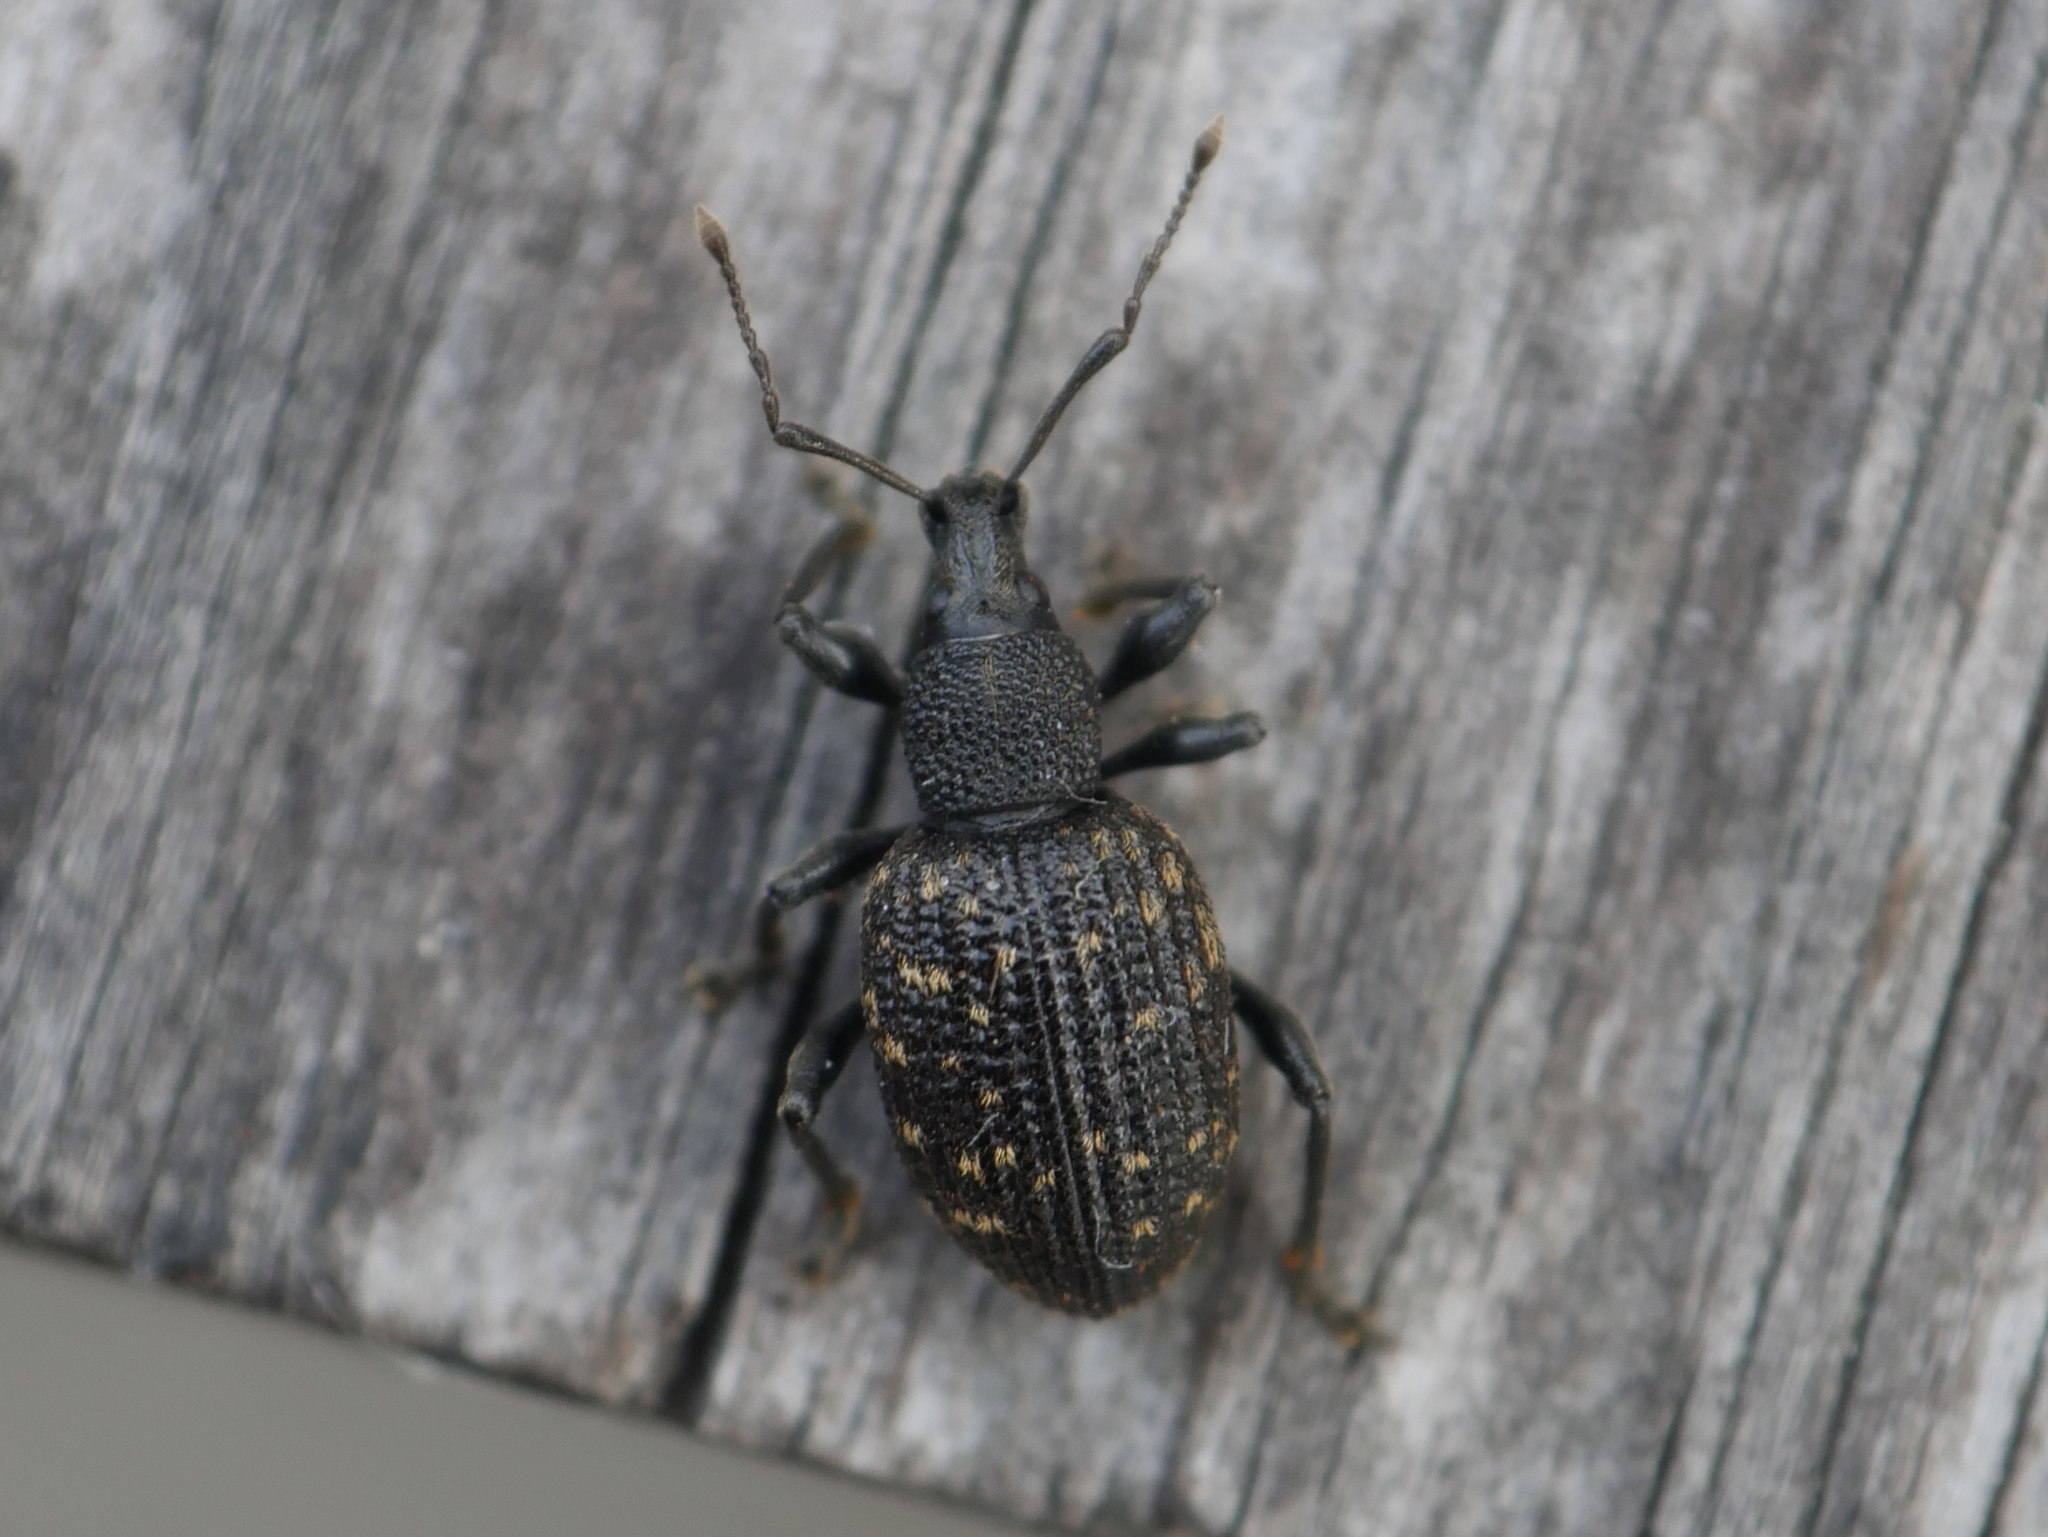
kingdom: Animalia
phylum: Arthropoda
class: Insecta
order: Coleoptera
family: Curculionidae
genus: Otiorhynchus
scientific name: Otiorhynchus sulcatus
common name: Black vine weevil
